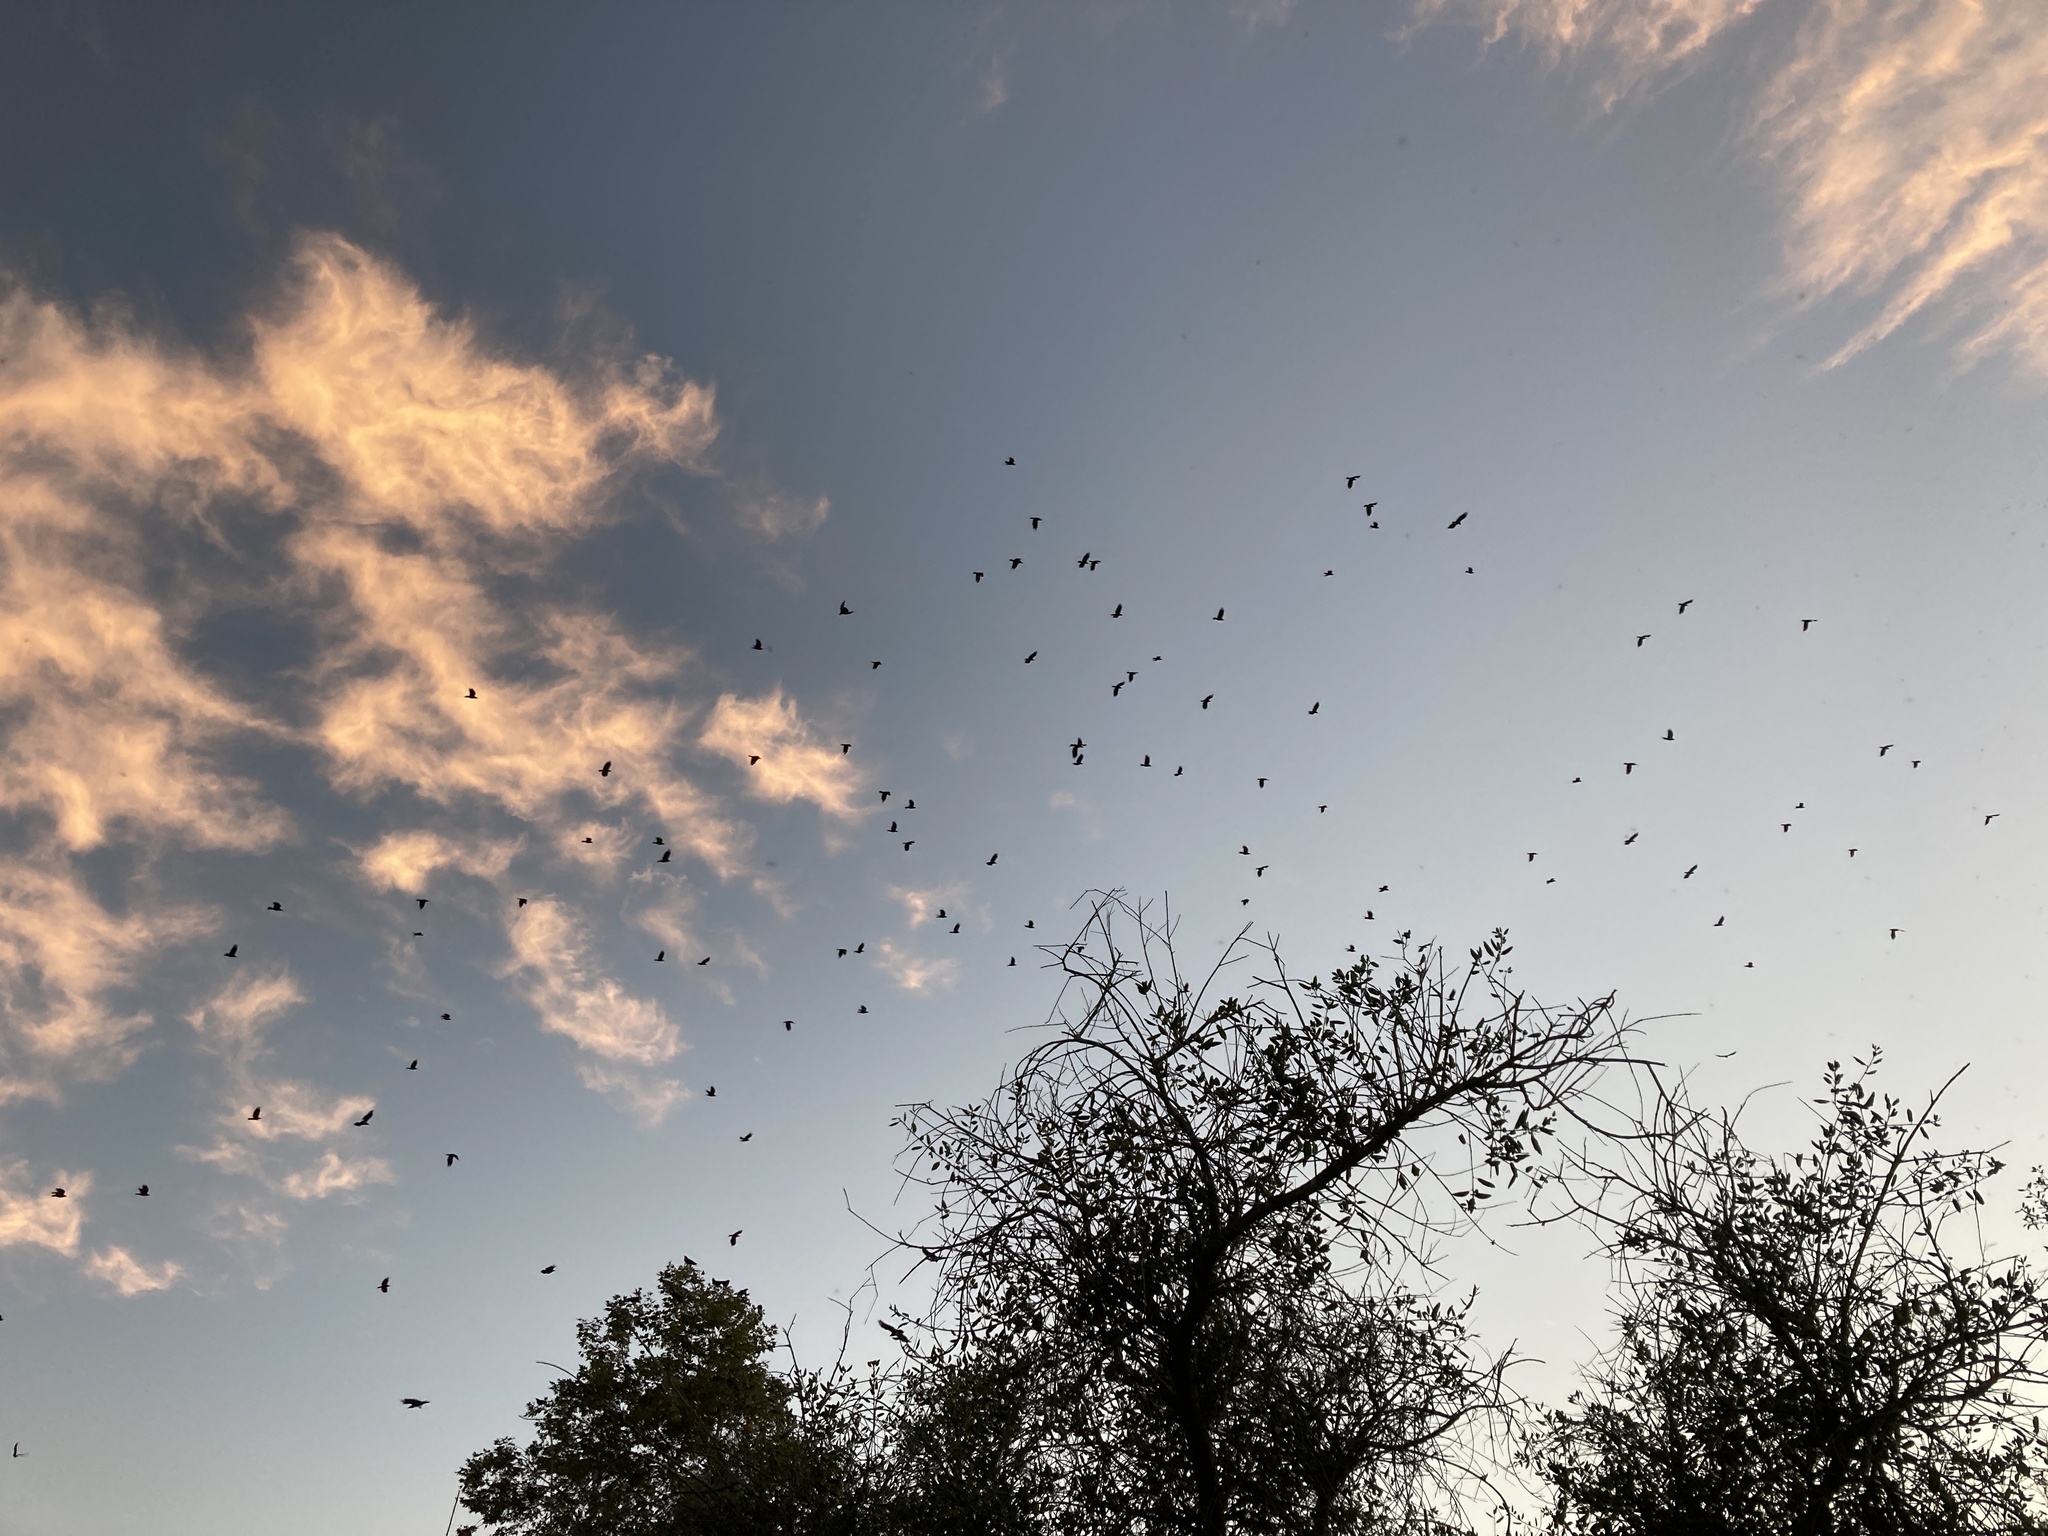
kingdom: Animalia
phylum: Chordata
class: Aves
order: Passeriformes
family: Corvidae
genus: Corvus
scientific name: Corvus brachyrhynchos
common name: American crow
